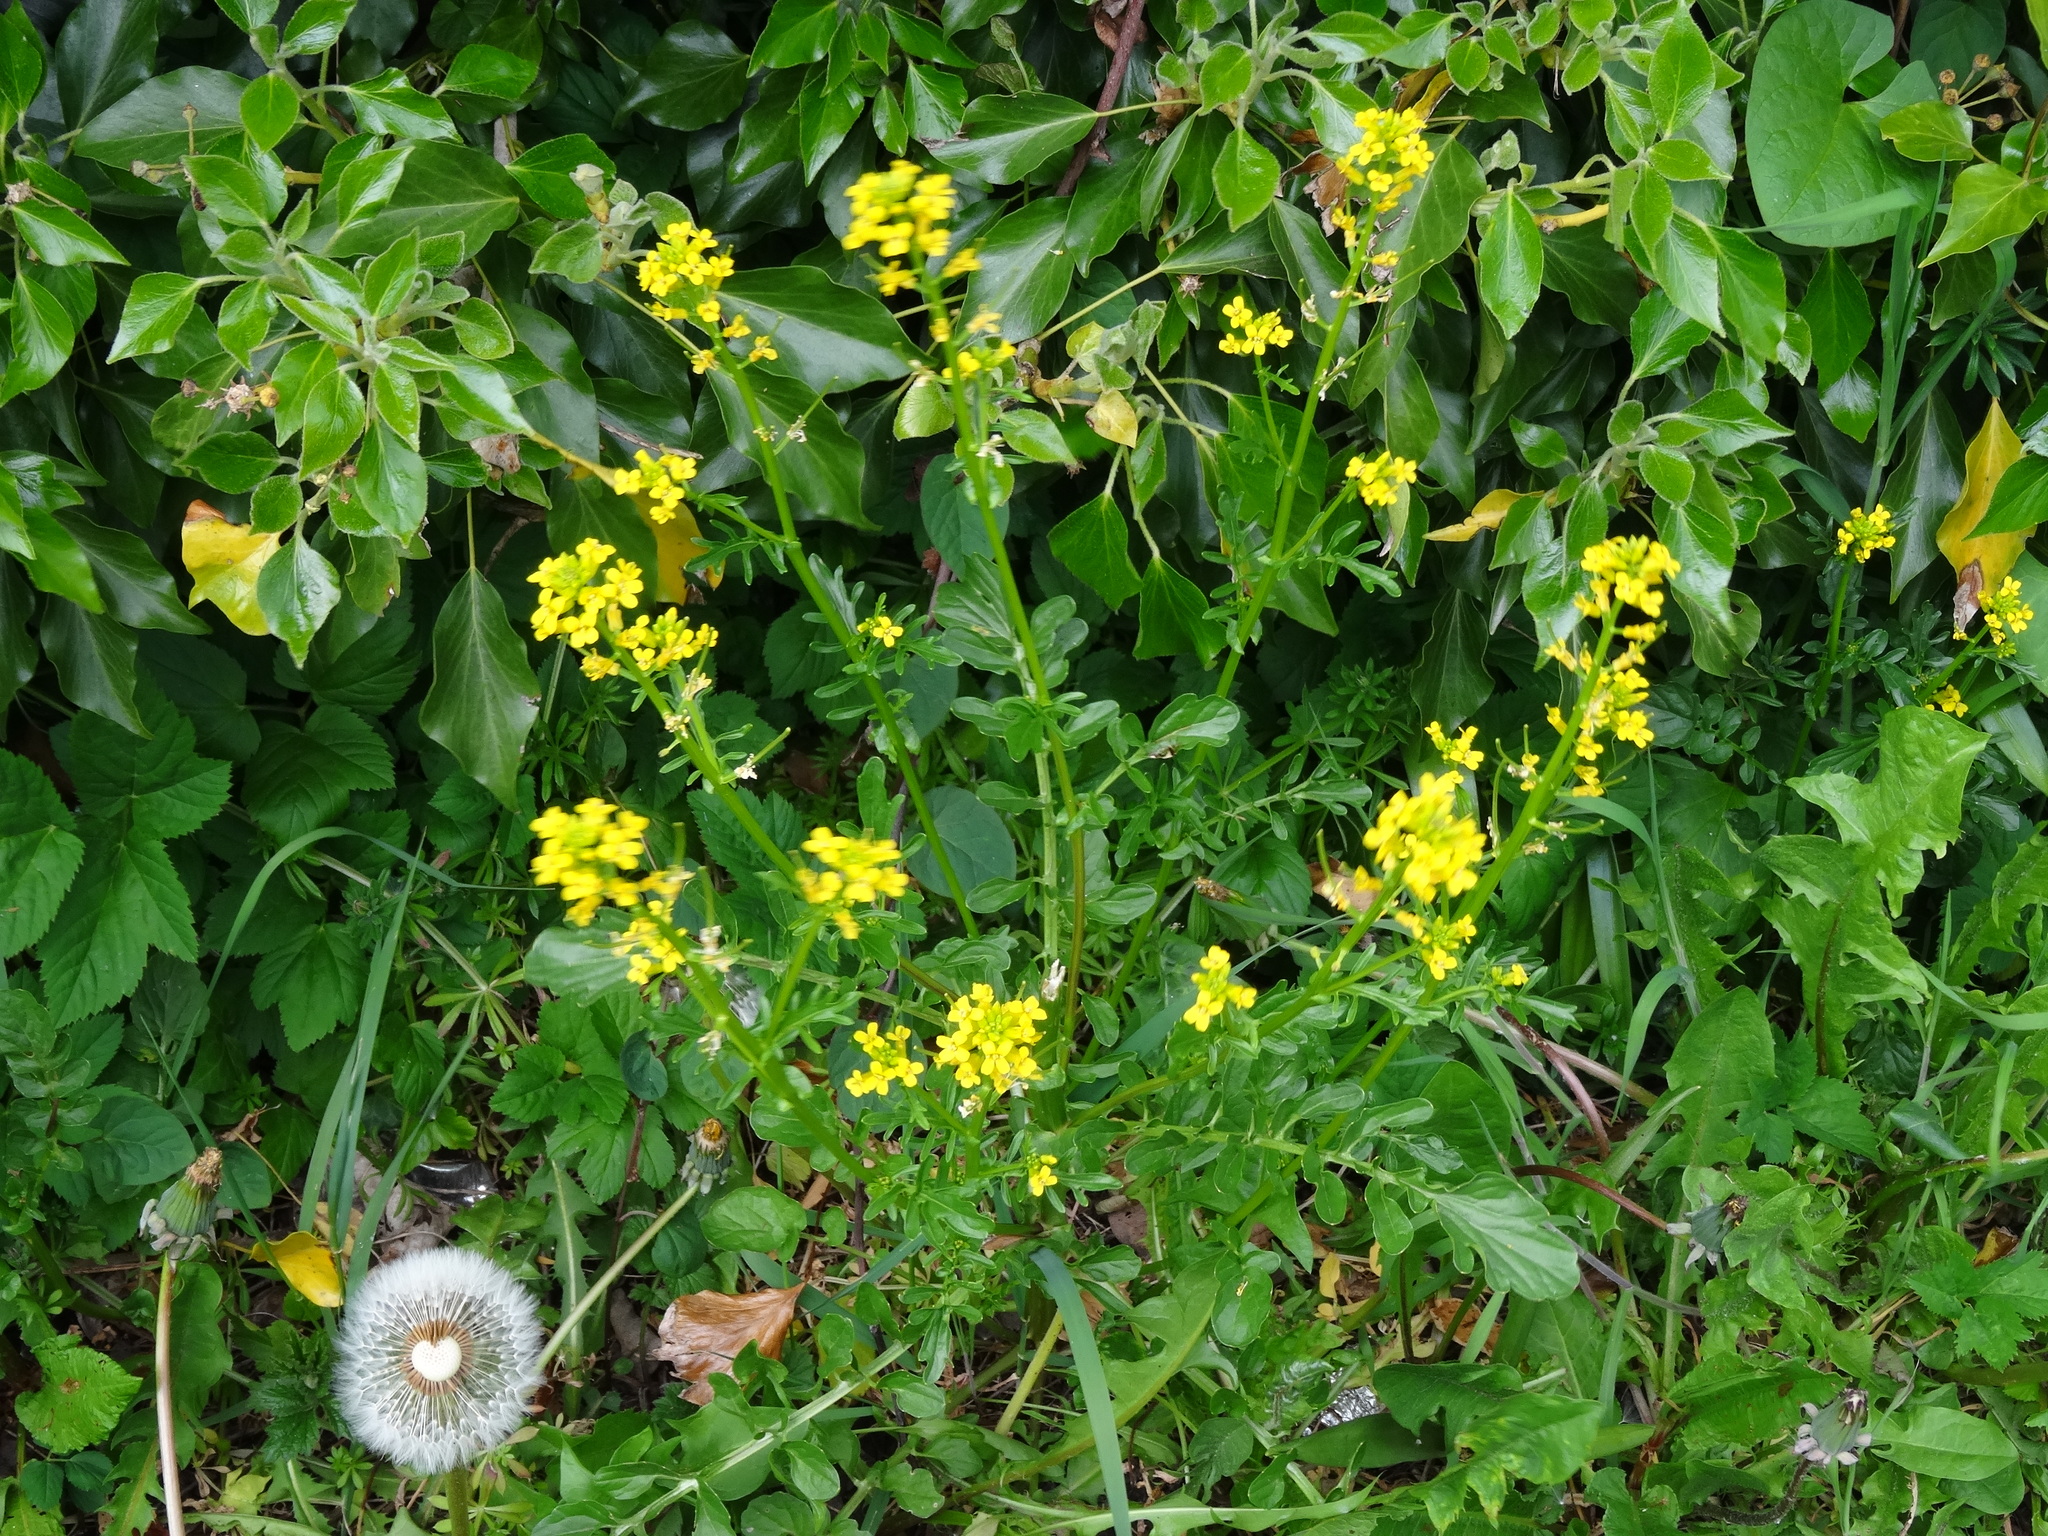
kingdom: Plantae
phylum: Tracheophyta
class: Magnoliopsida
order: Brassicales
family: Brassicaceae
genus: Barbarea
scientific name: Barbarea vulgaris
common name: Cressy-greens
